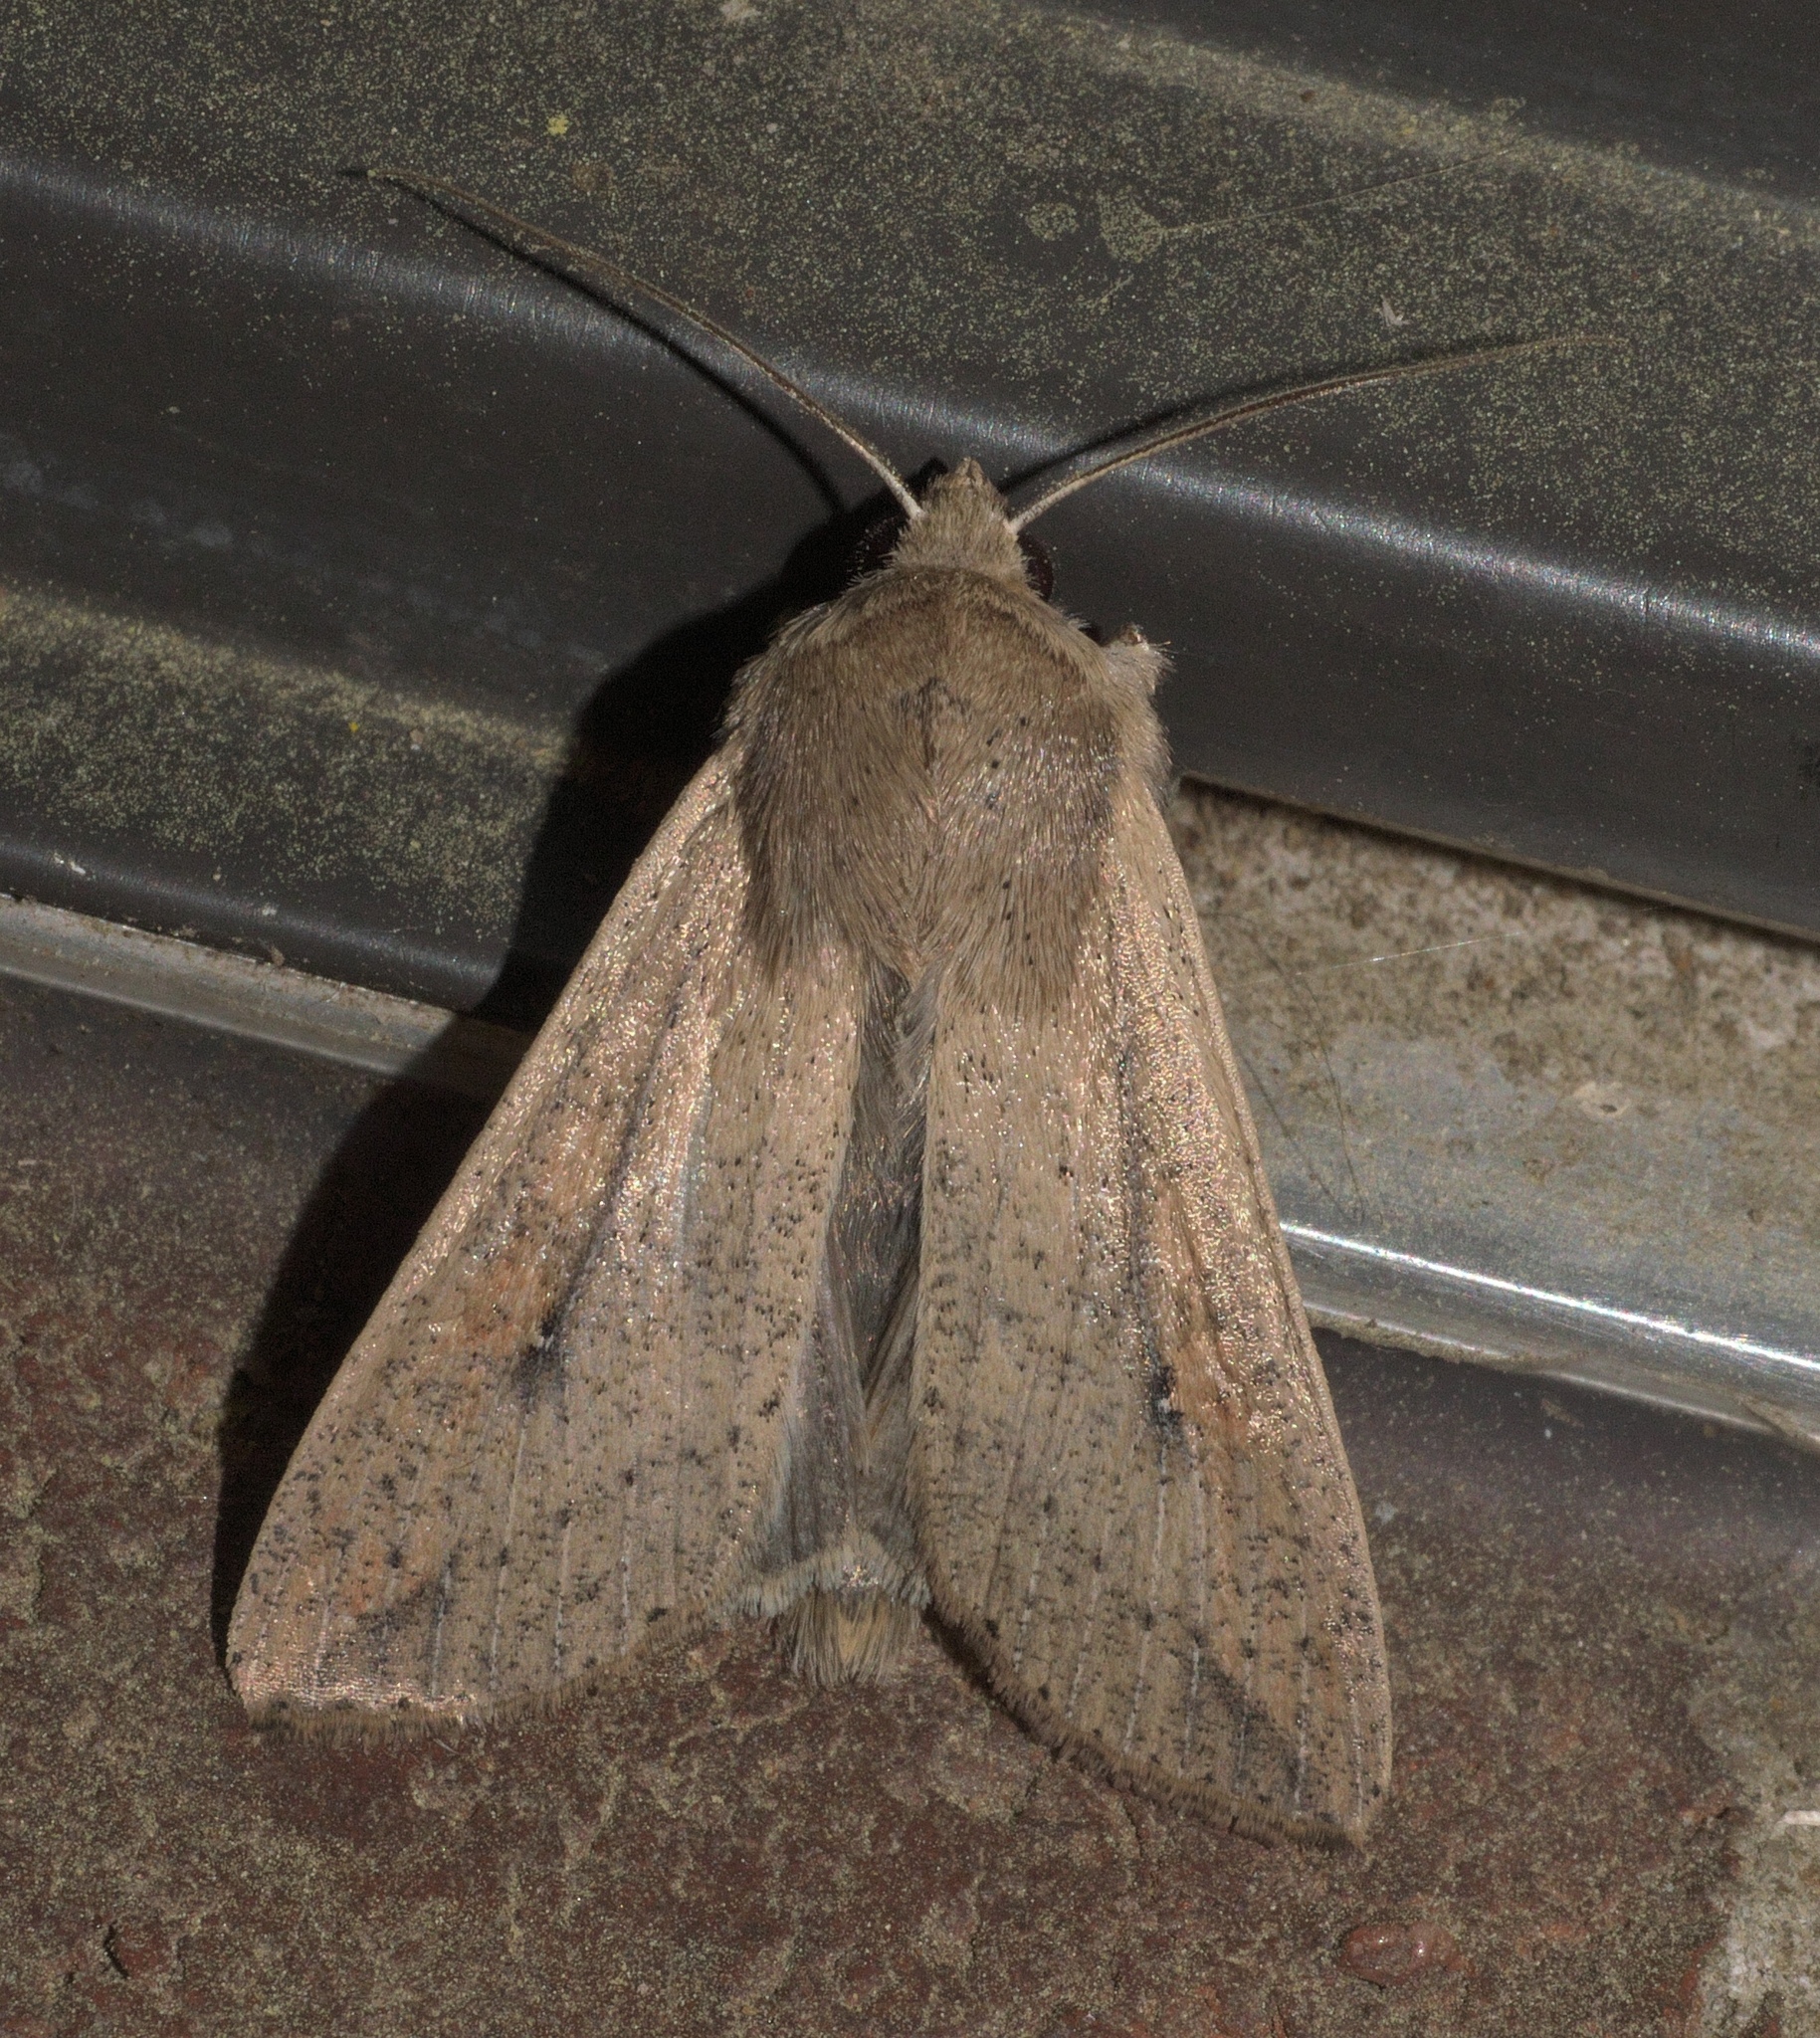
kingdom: Animalia
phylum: Arthropoda
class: Insecta
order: Lepidoptera
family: Noctuidae
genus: Mythimna
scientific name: Mythimna unipuncta
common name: White-speck
